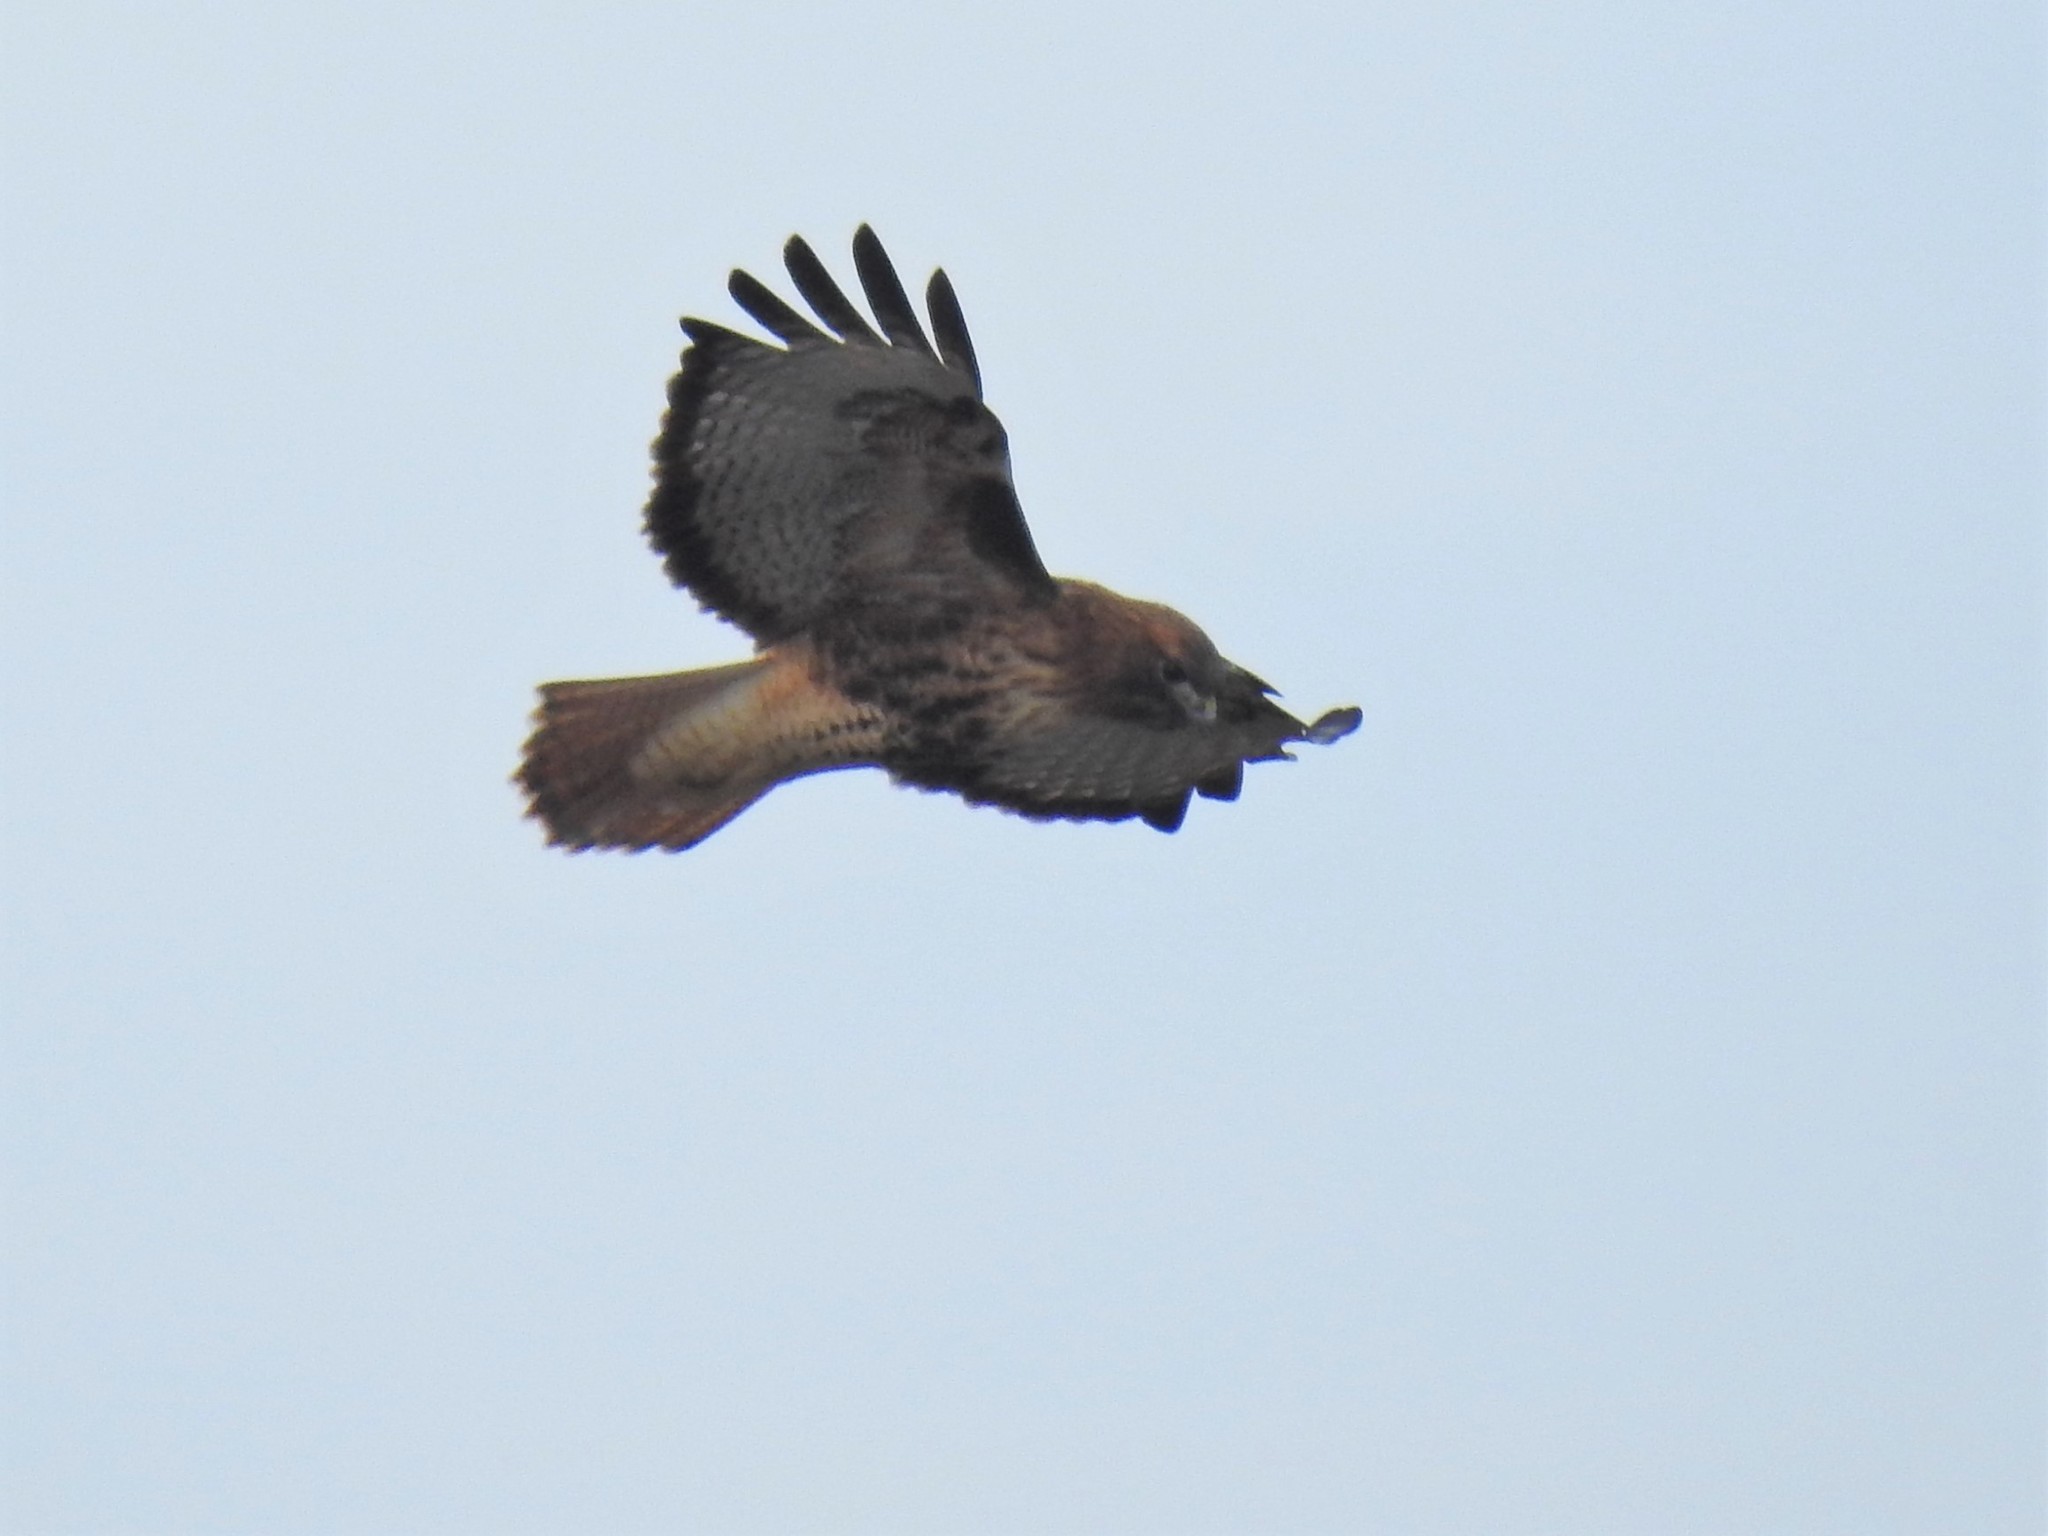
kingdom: Animalia
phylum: Chordata
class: Aves
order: Accipitriformes
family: Accipitridae
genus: Buteo
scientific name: Buteo jamaicensis
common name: Red-tailed hawk
